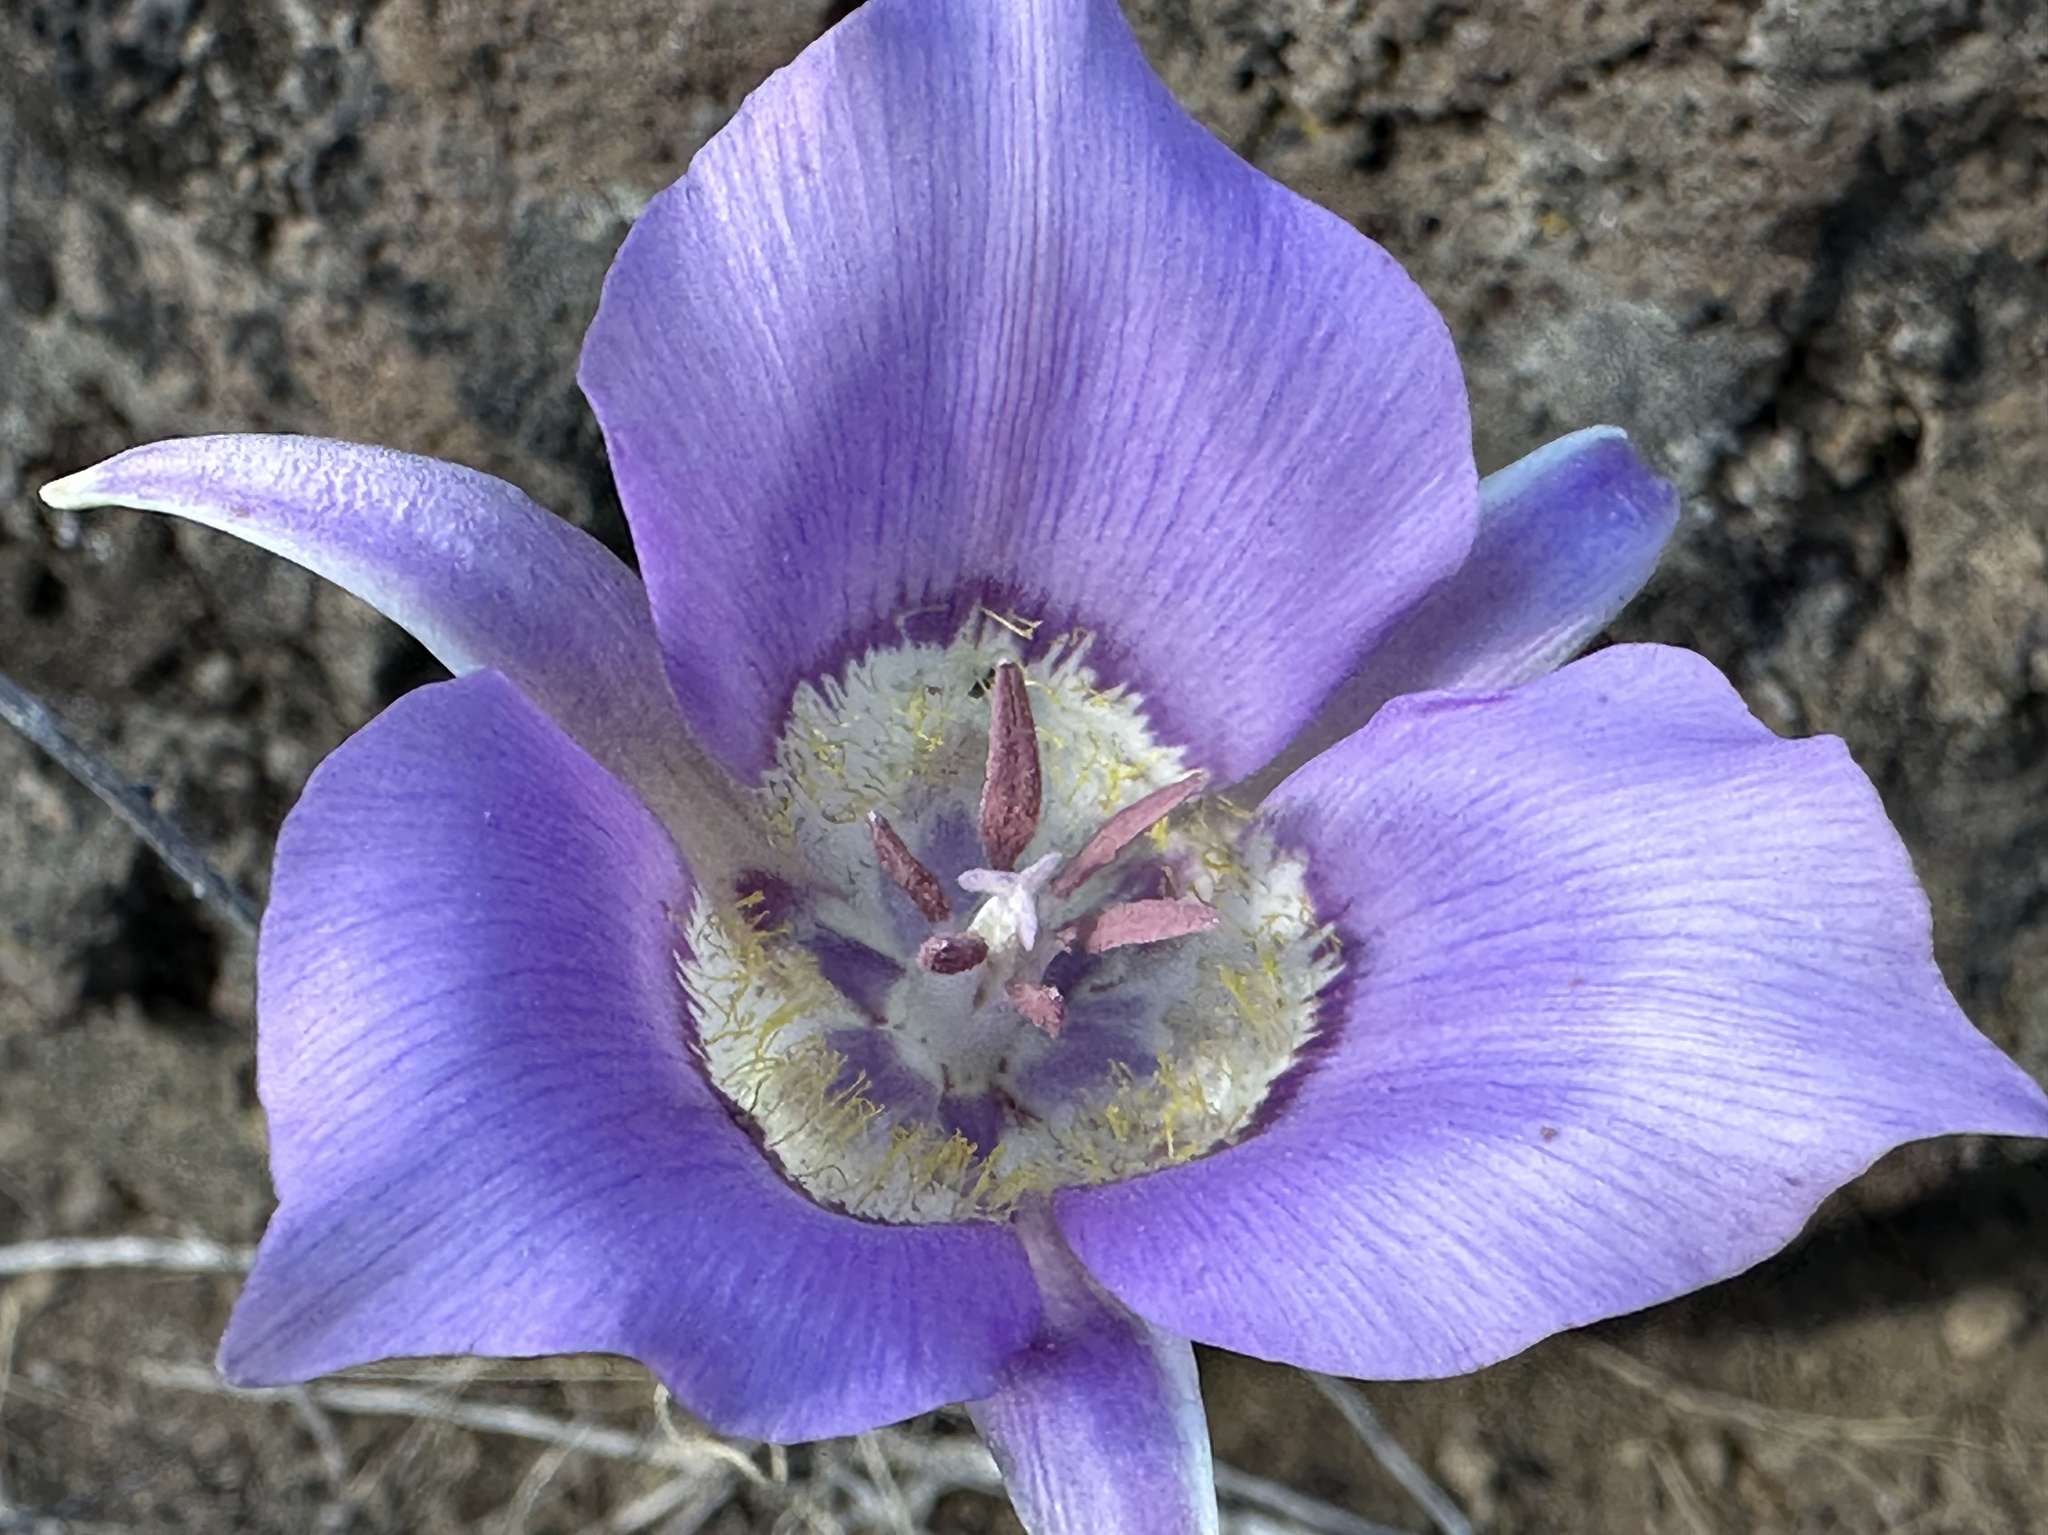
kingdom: Plantae
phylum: Tracheophyta
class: Liliopsida
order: Liliales
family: Liliaceae
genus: Calochortus
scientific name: Calochortus macrocarpus
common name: Green-band mariposa lily
